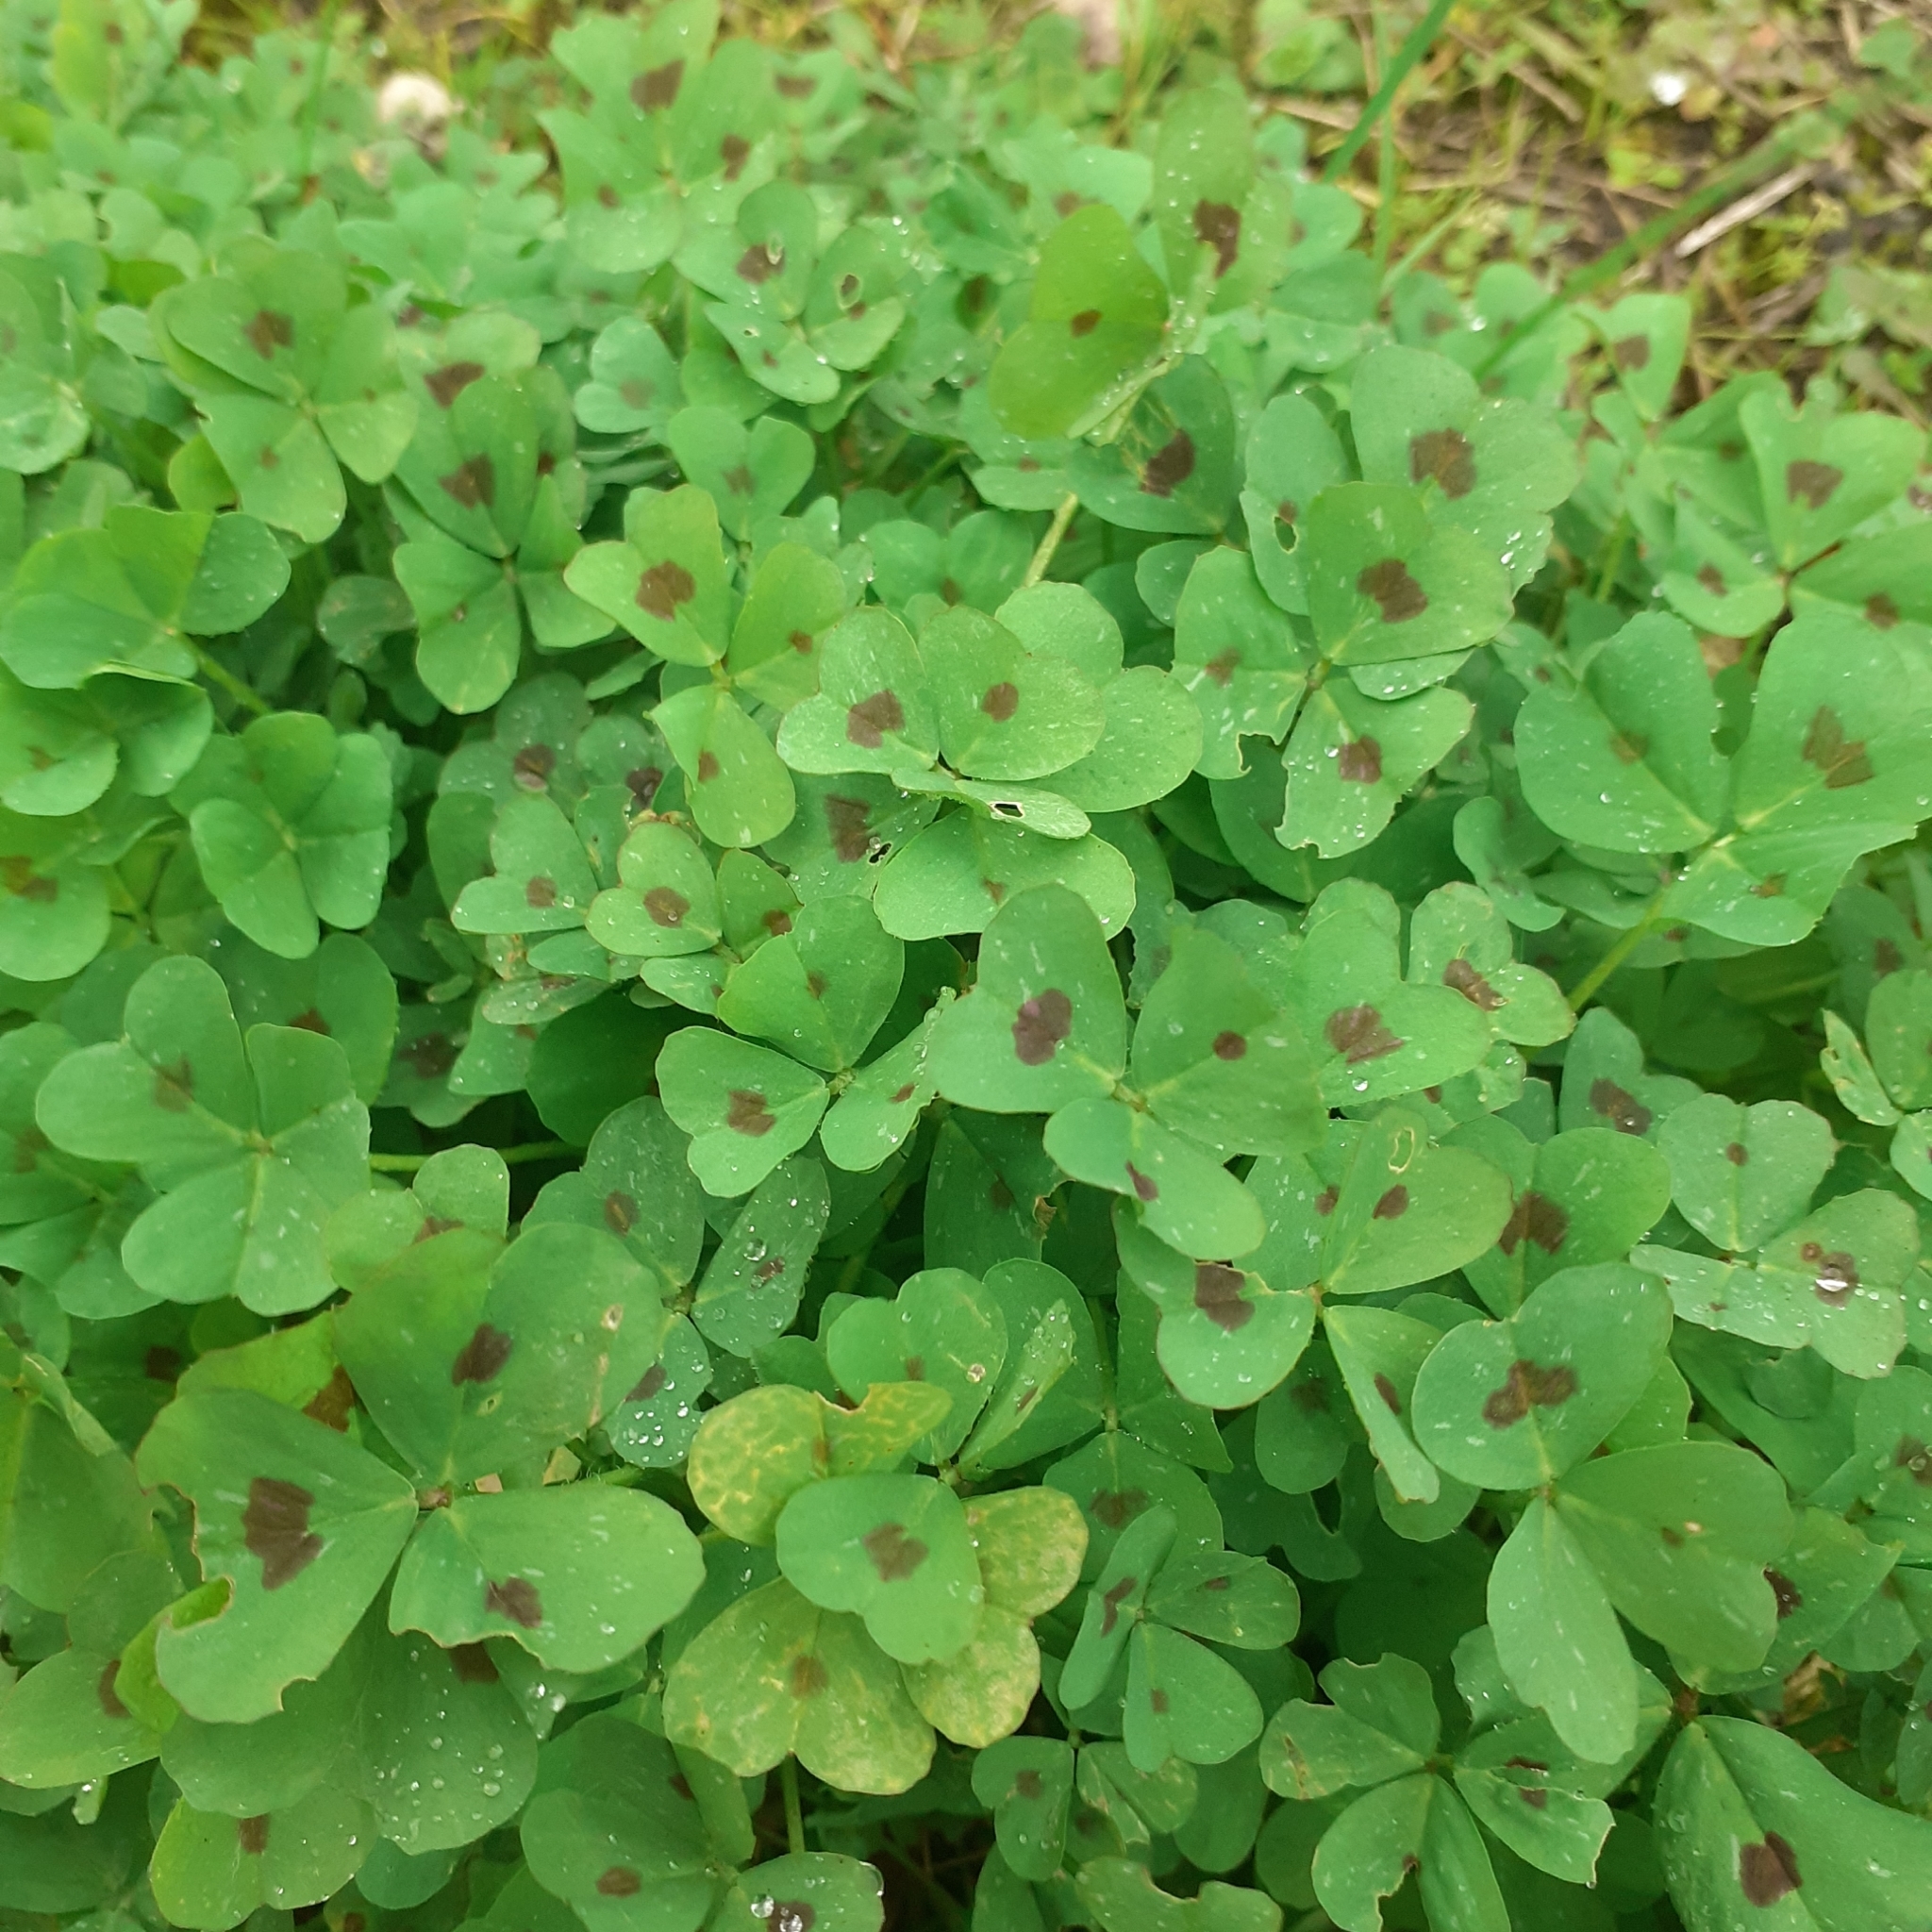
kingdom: Plantae
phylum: Tracheophyta
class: Magnoliopsida
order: Fabales
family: Fabaceae
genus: Medicago
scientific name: Medicago arabica
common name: Spotted medick
